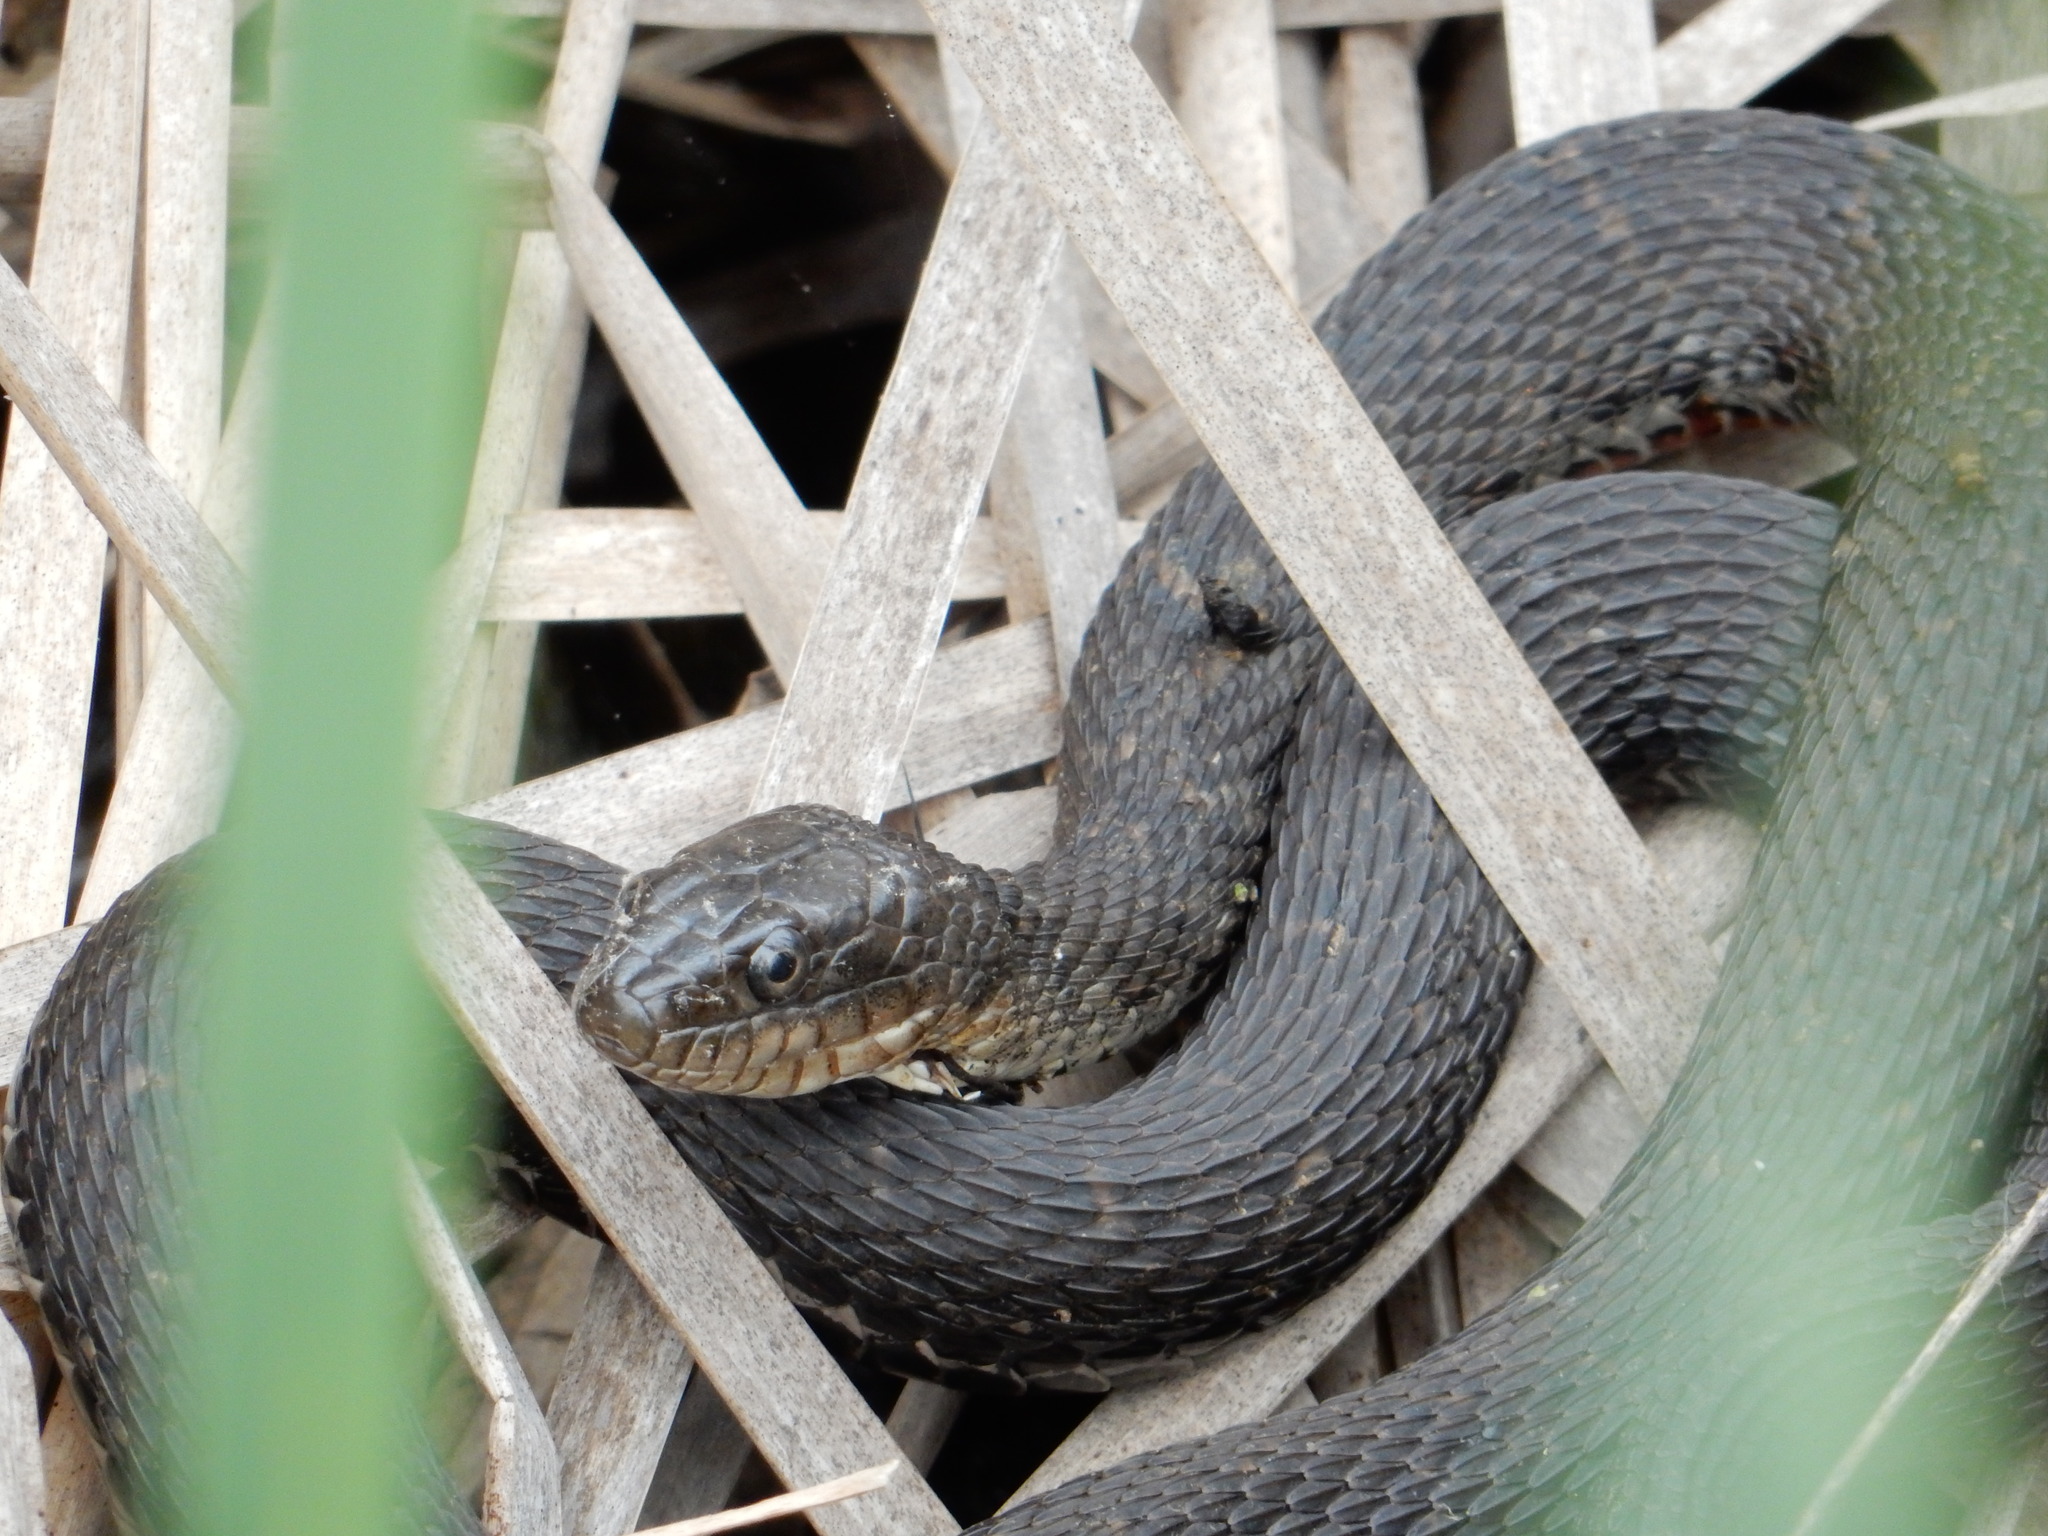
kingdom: Animalia
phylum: Chordata
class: Squamata
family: Colubridae
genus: Nerodia
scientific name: Nerodia sipedon
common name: Northern water snake
